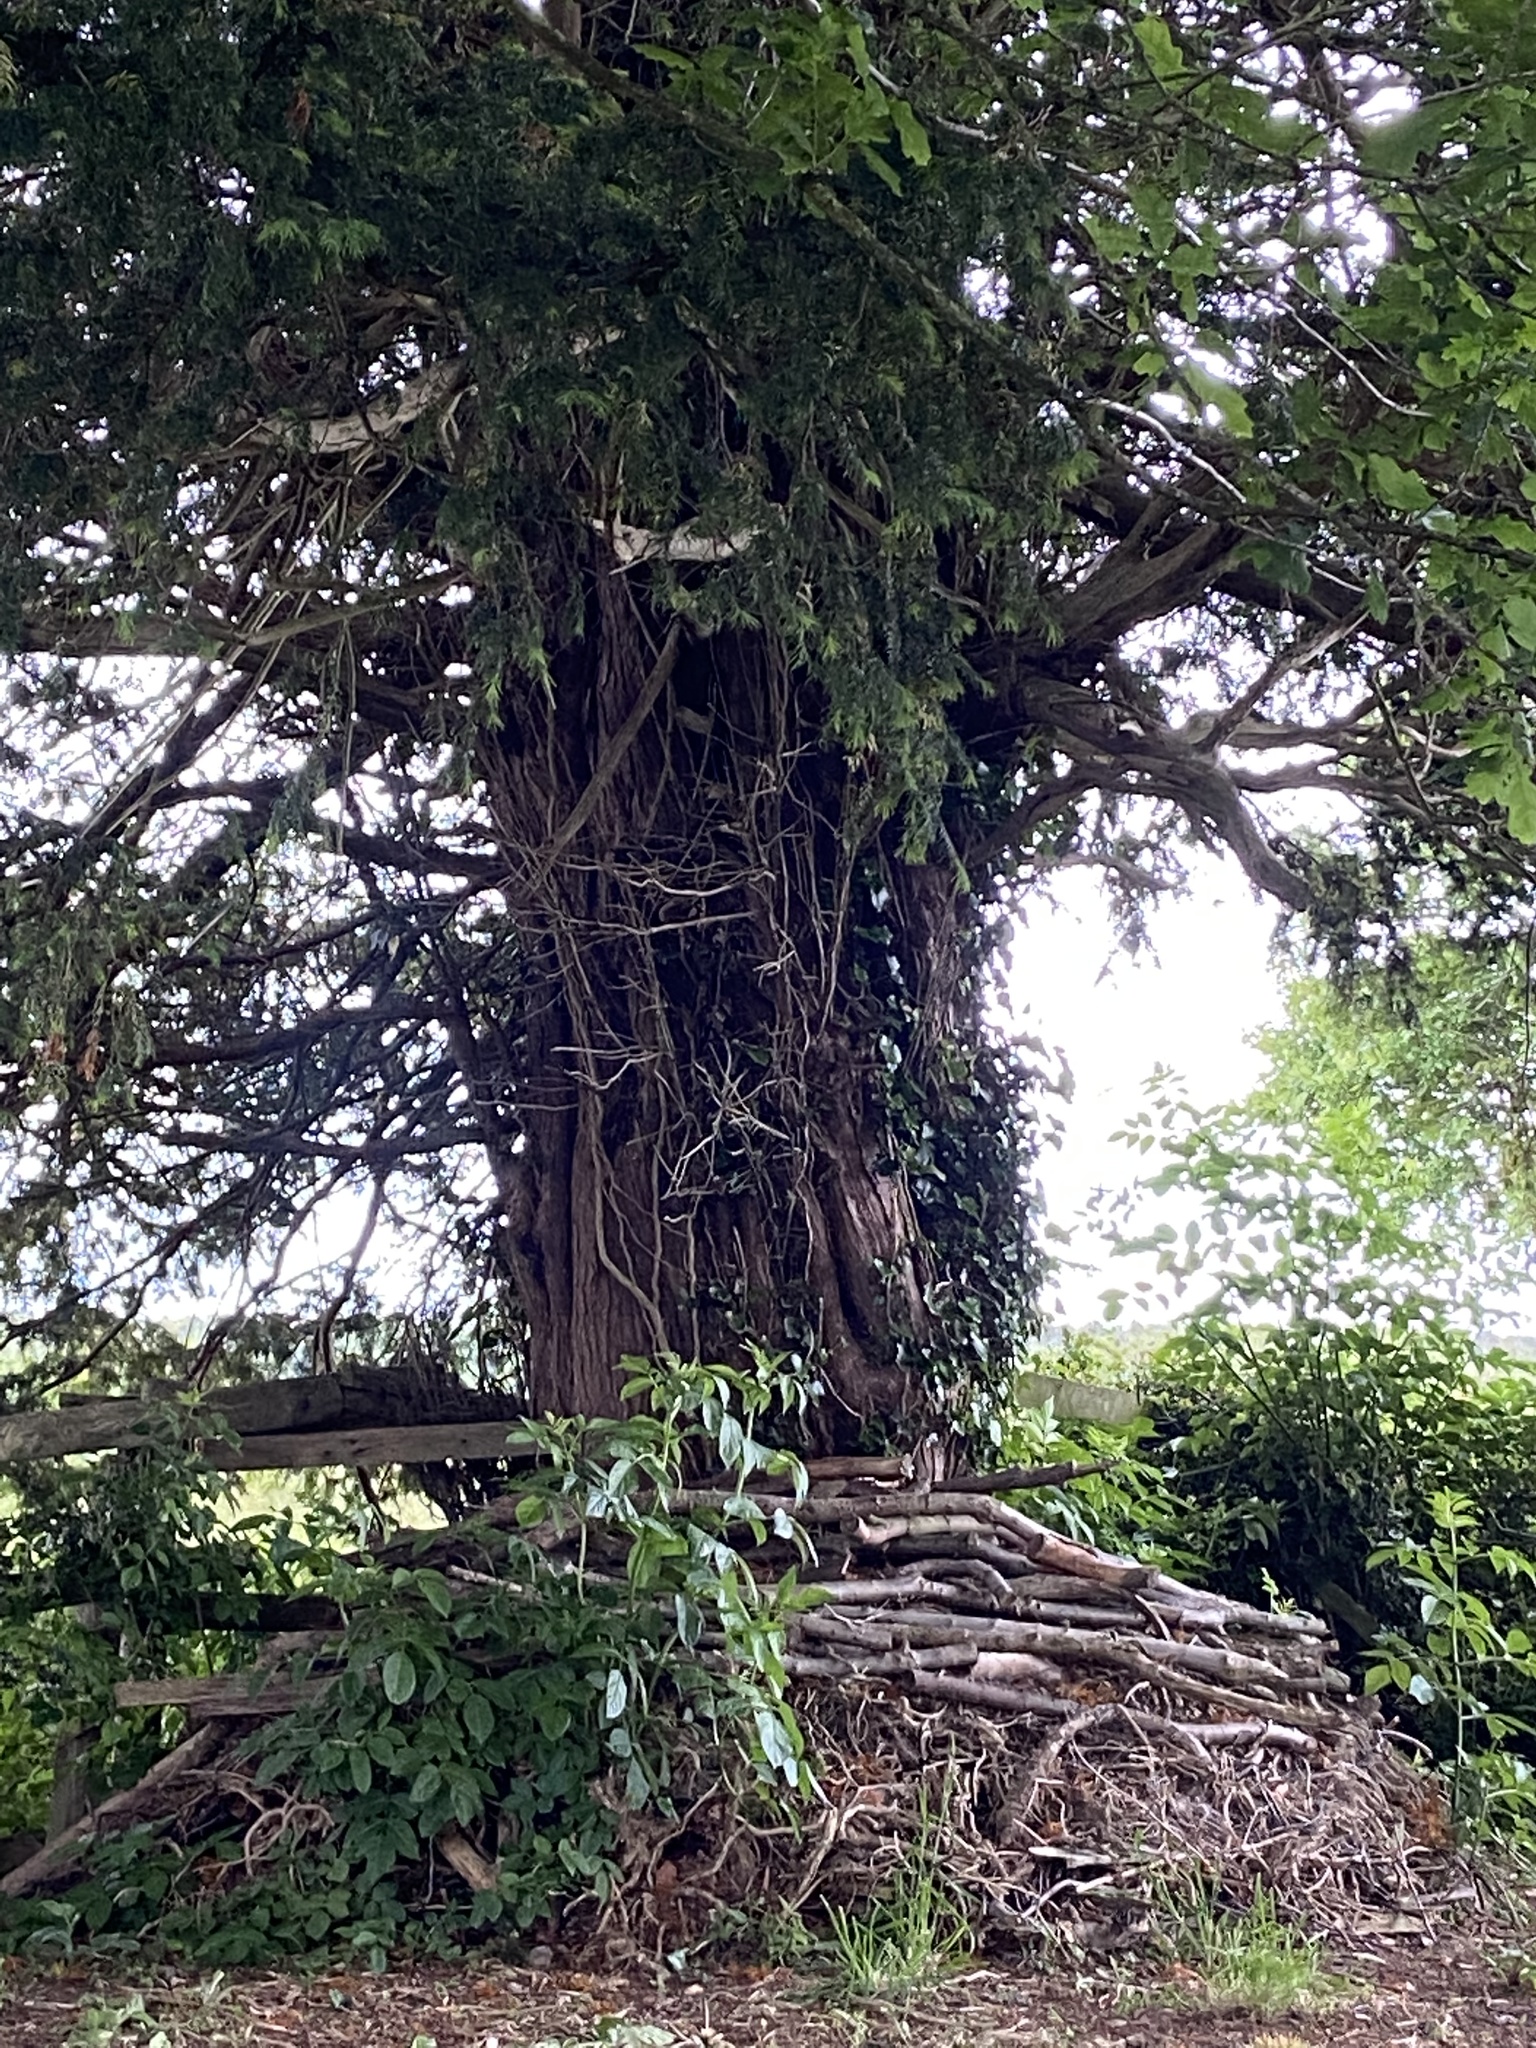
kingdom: Plantae
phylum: Tracheophyta
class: Pinopsida
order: Pinales
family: Taxaceae
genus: Taxus
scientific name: Taxus baccata
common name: Yew
